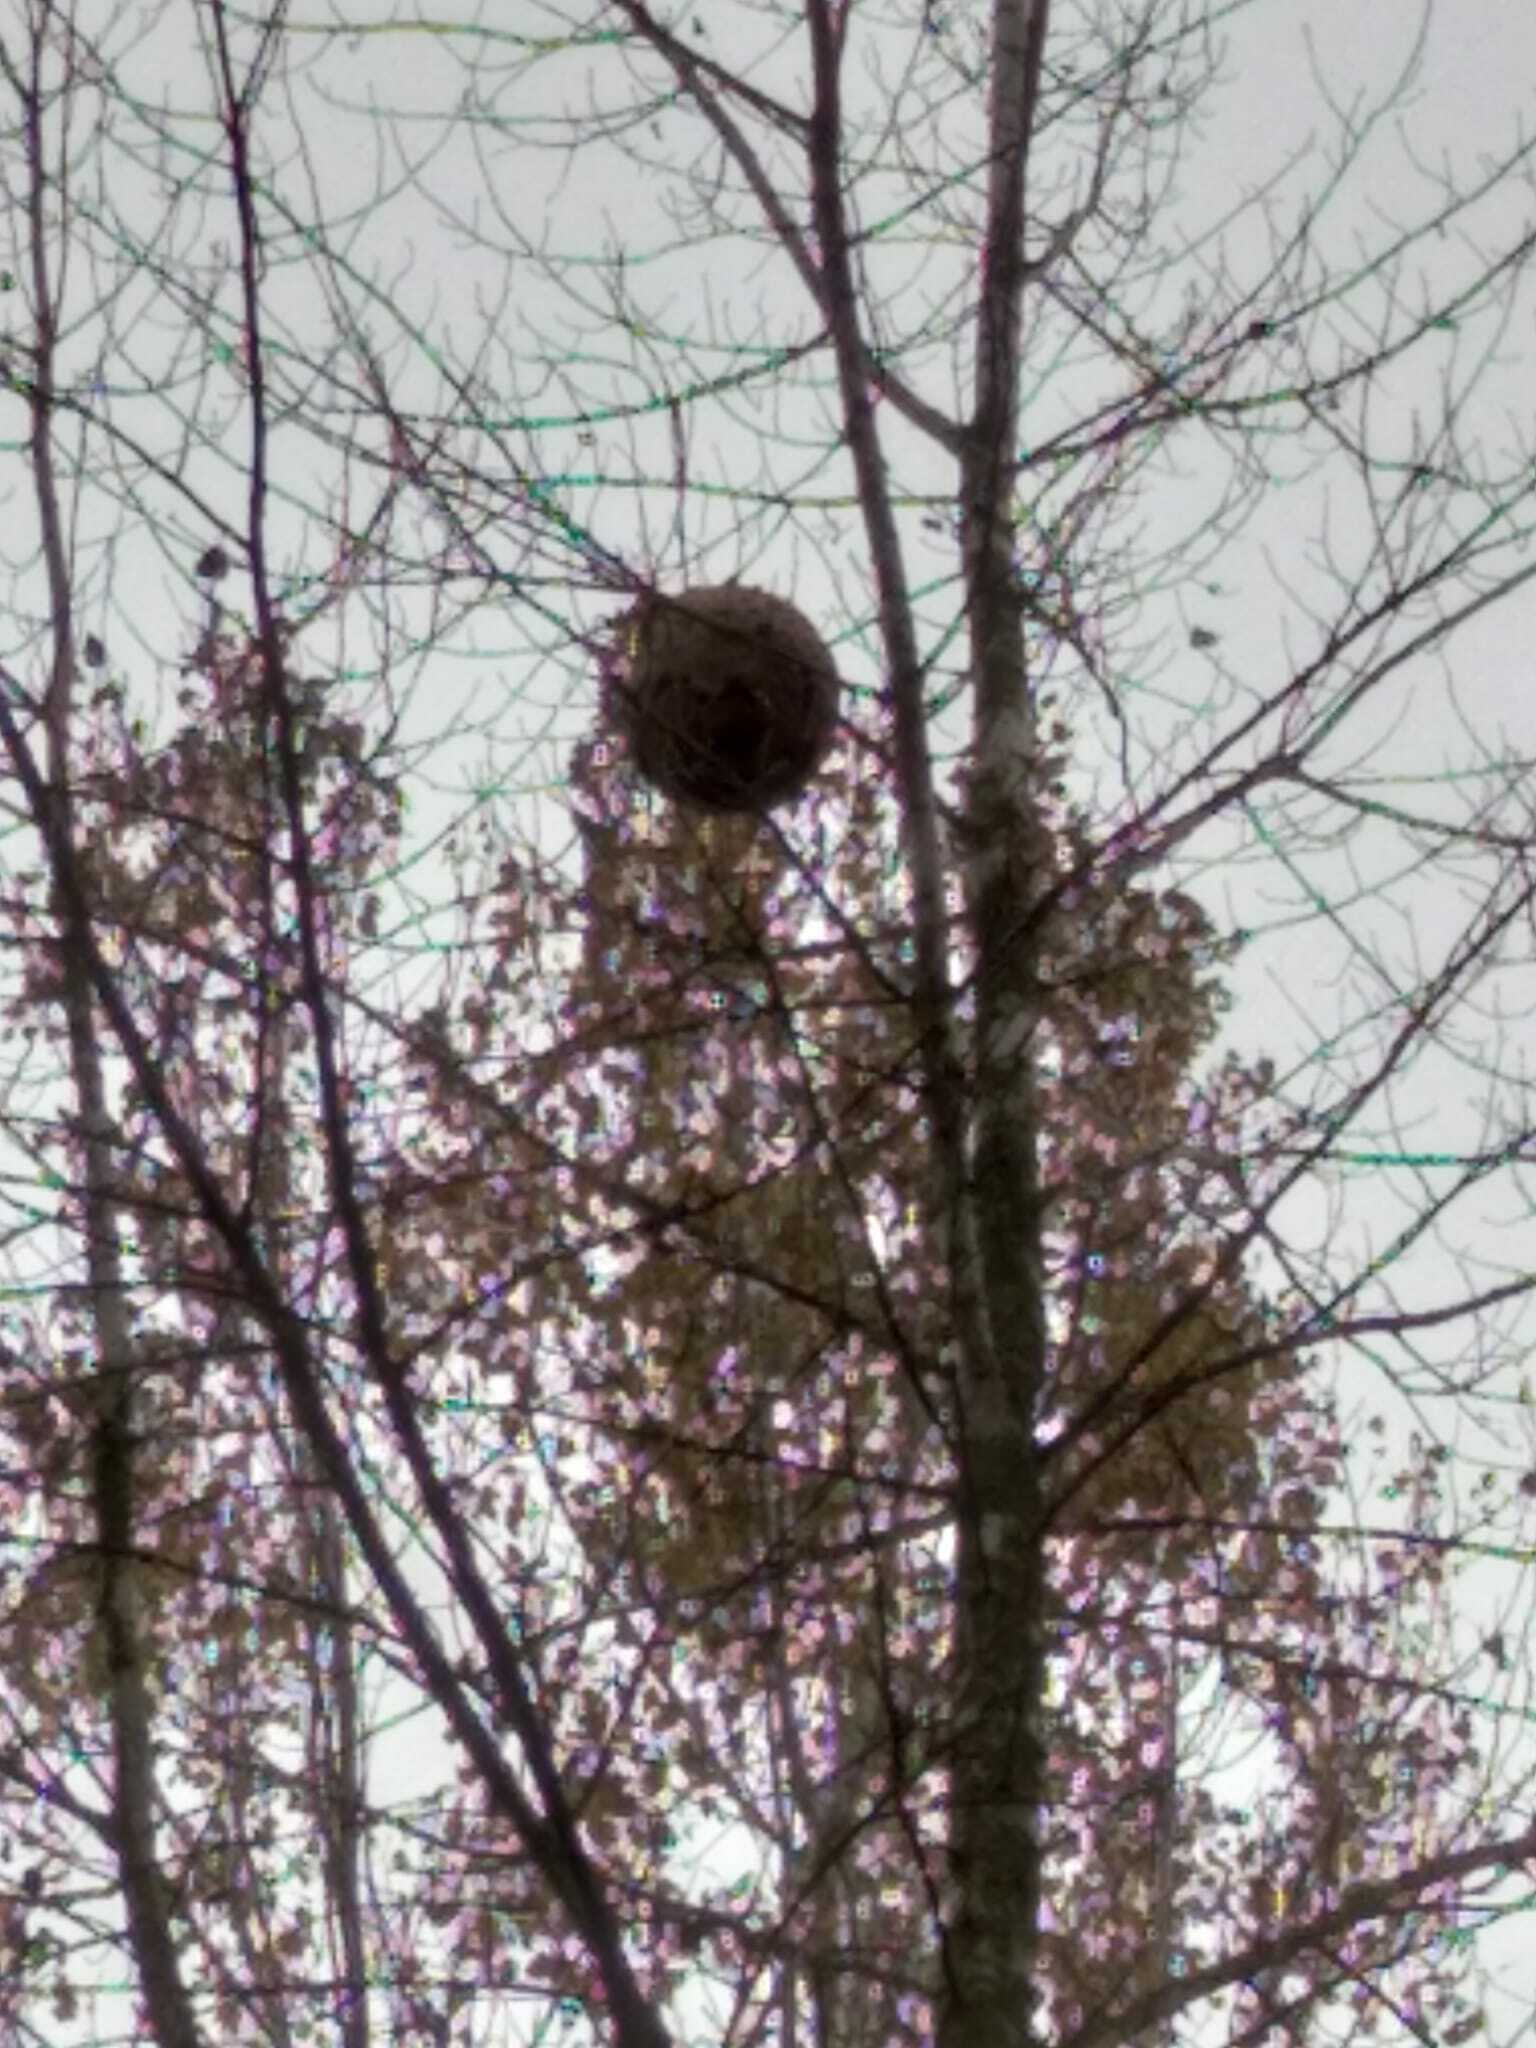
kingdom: Animalia
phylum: Arthropoda
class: Insecta
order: Hymenoptera
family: Vespidae
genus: Vespa
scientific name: Vespa velutina
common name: Asian hornet
